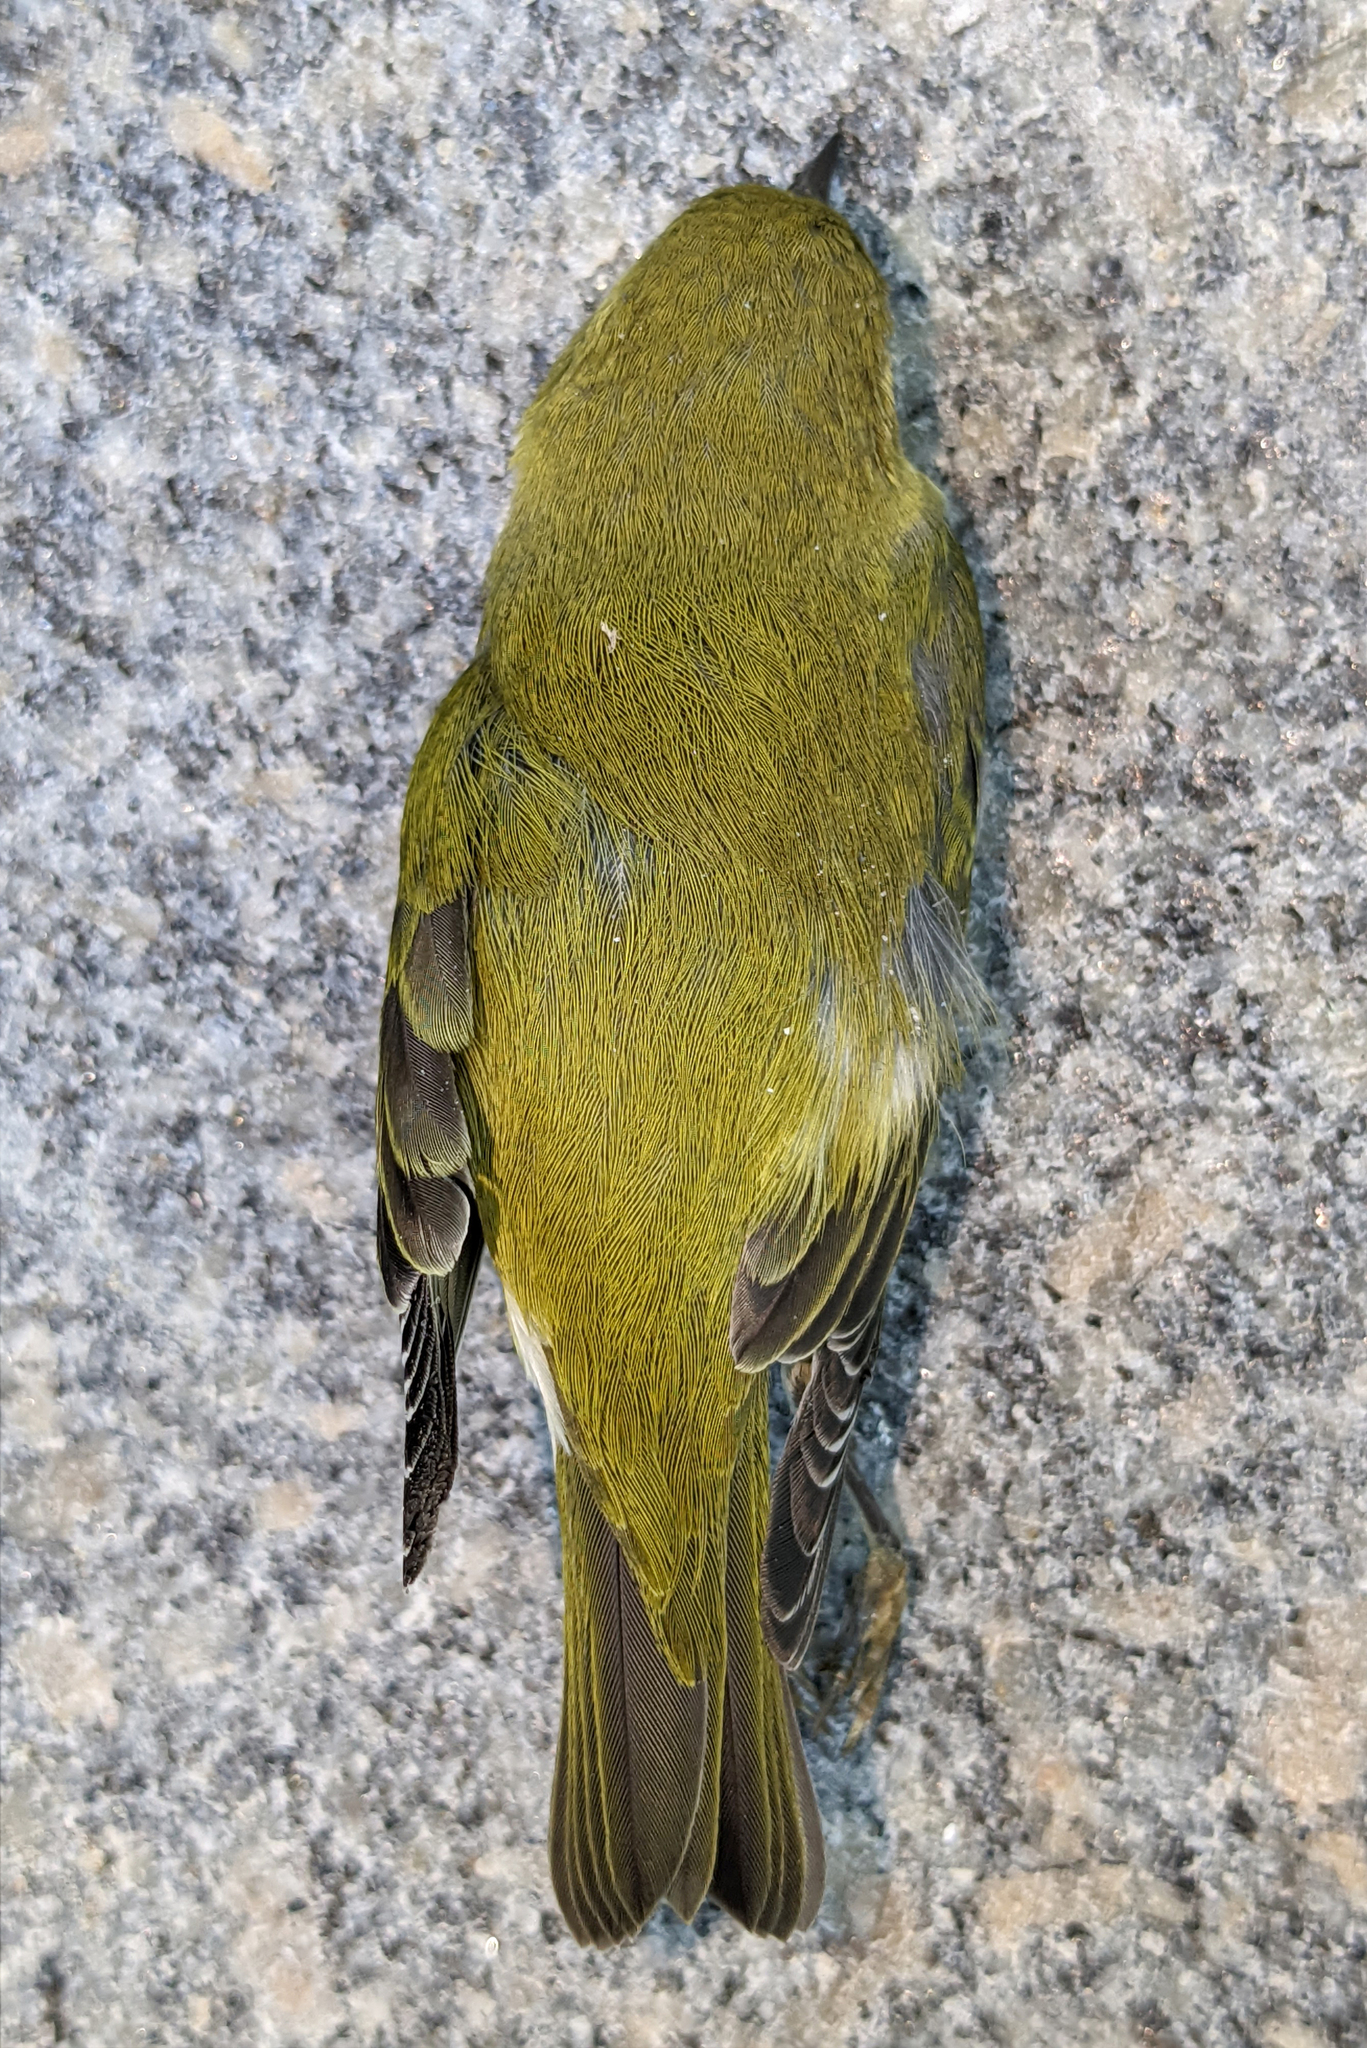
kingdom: Animalia
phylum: Chordata
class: Aves
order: Passeriformes
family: Parulidae
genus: Leiothlypis
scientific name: Leiothlypis peregrina
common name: Tennessee warbler
